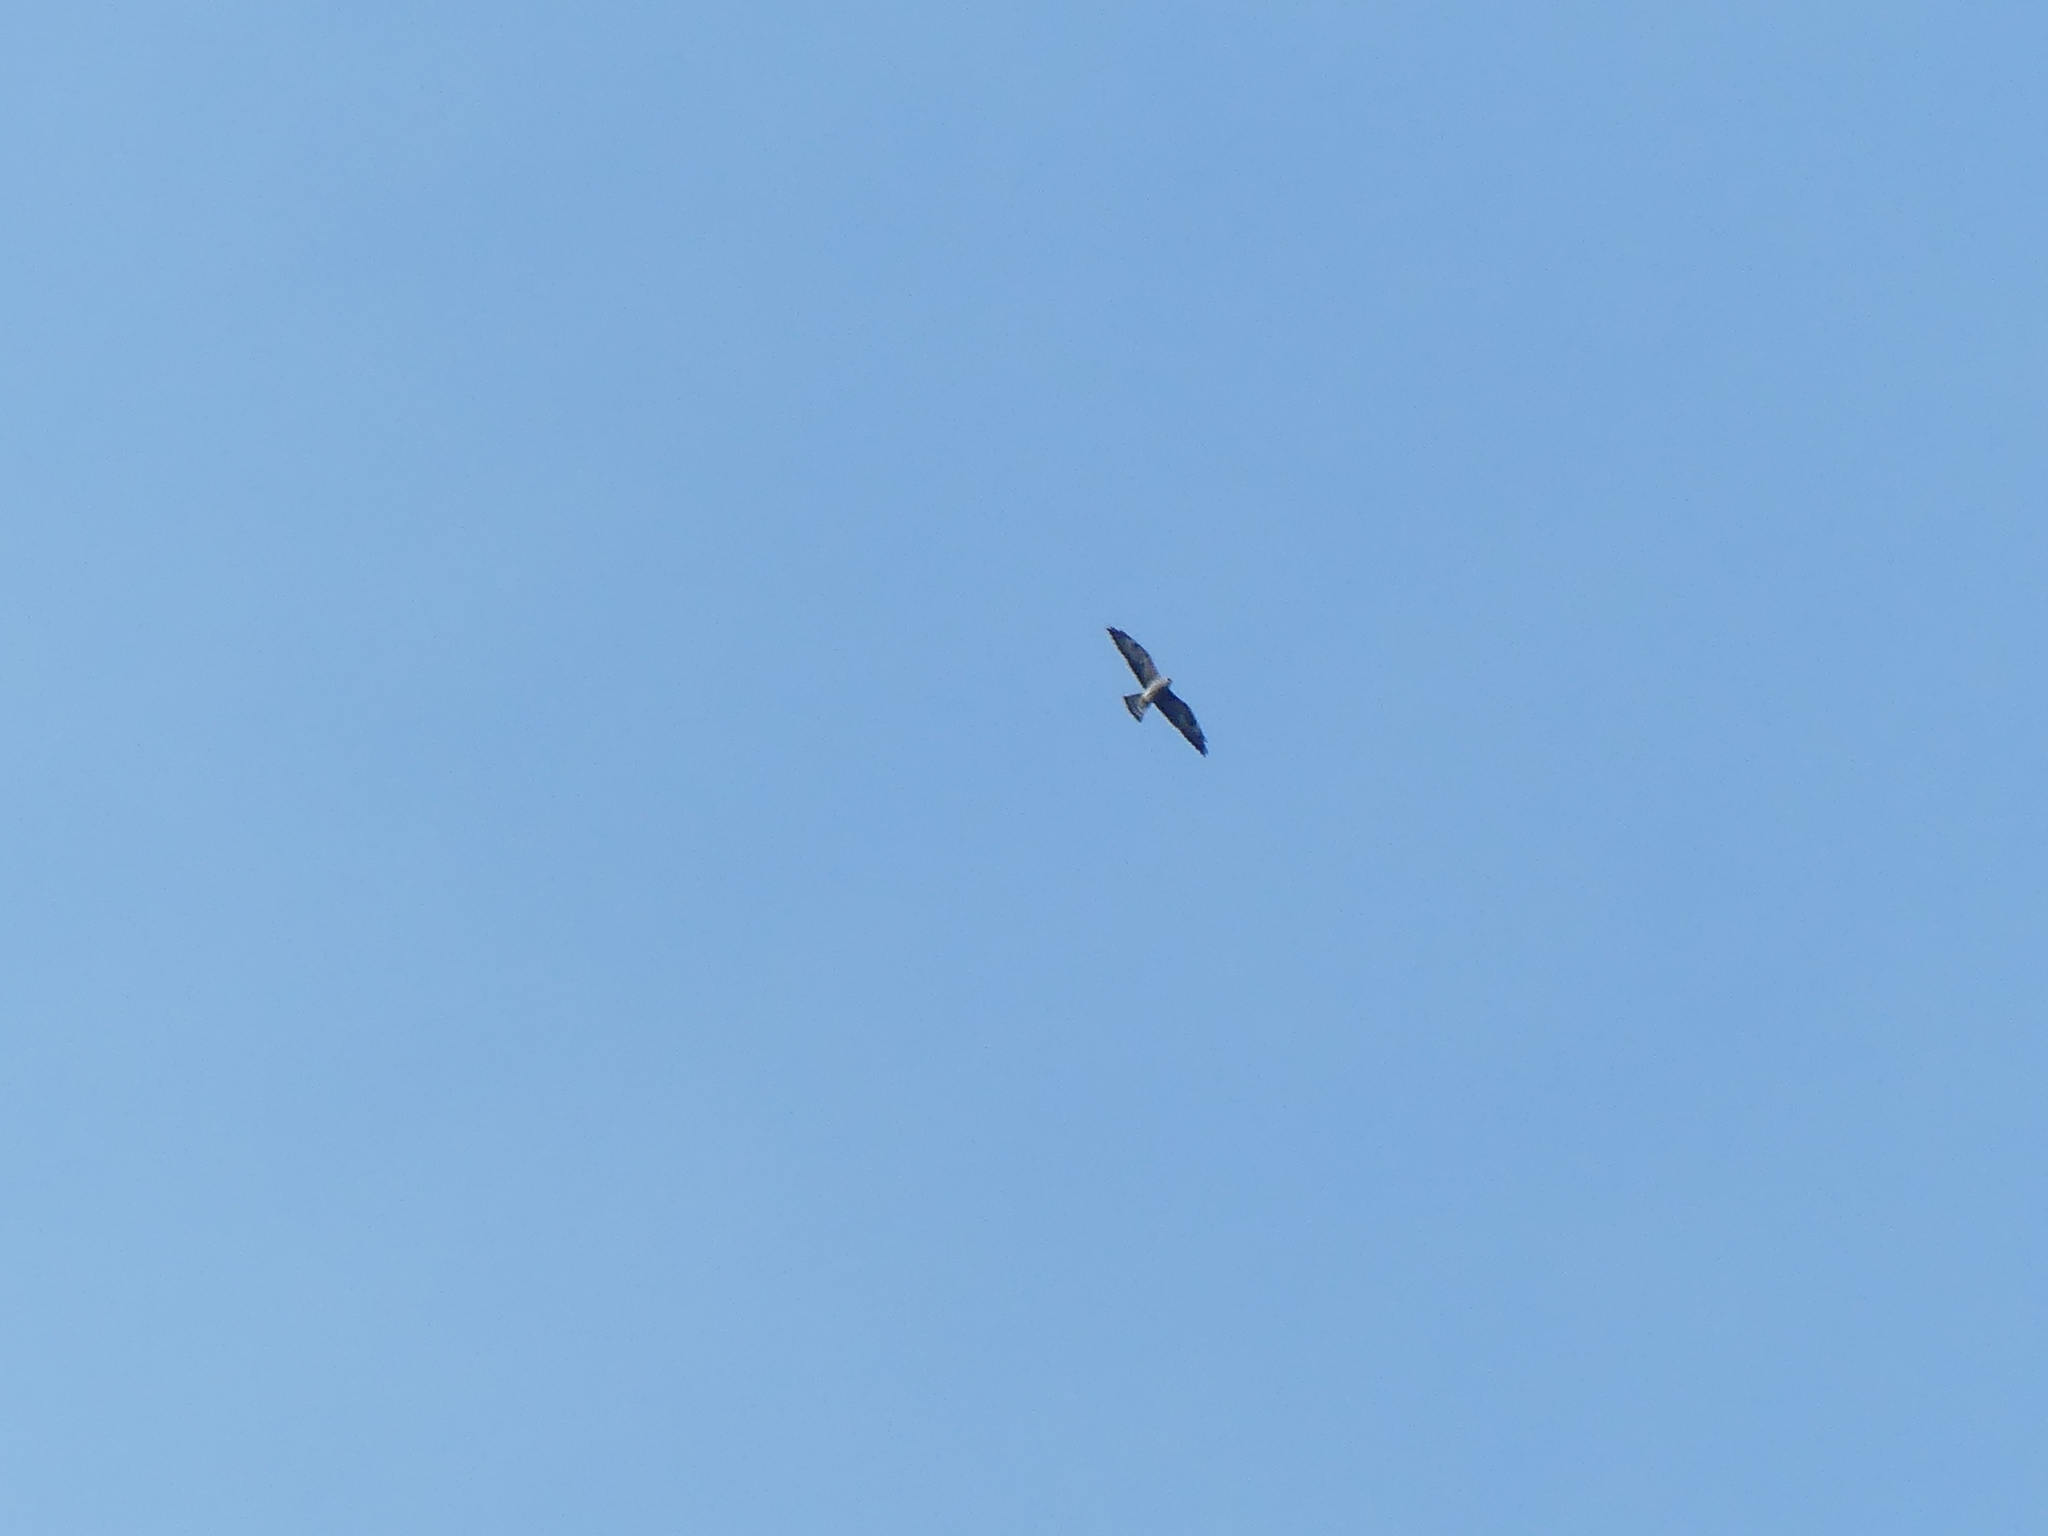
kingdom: Animalia
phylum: Chordata
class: Aves
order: Accipitriformes
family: Accipitridae
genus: Ictinia
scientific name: Ictinia mississippiensis
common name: Mississippi kite
